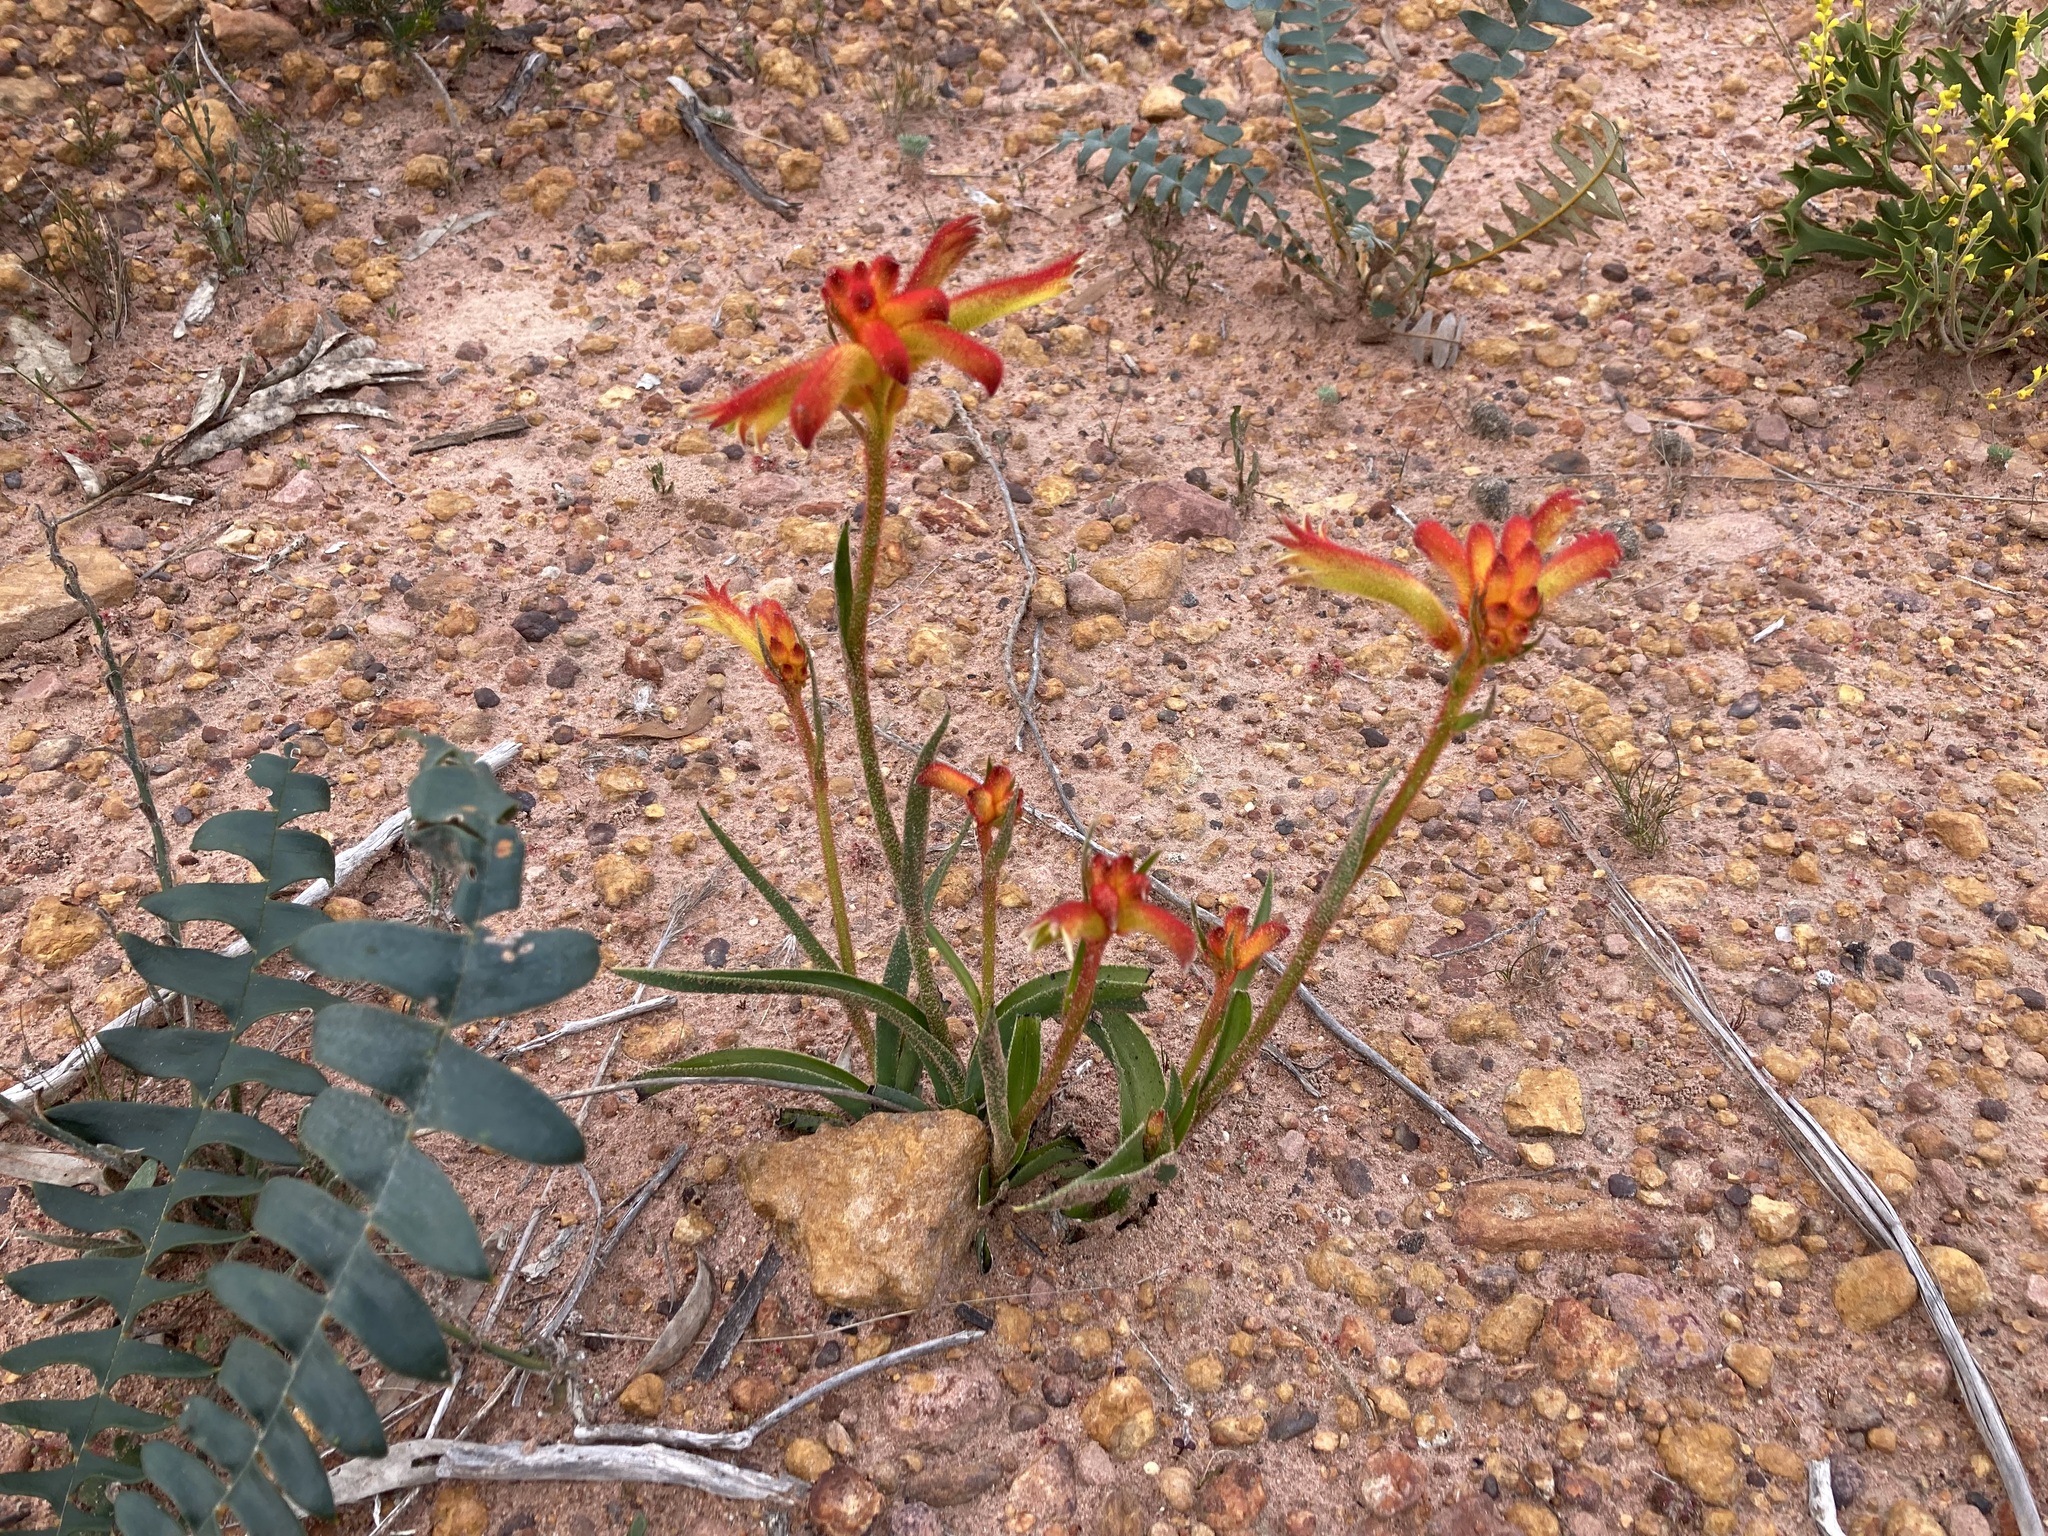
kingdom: Plantae
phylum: Tracheophyta
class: Liliopsida
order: Commelinales
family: Haemodoraceae
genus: Anigozanthos
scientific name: Anigozanthos humilis
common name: Cat's-paw
